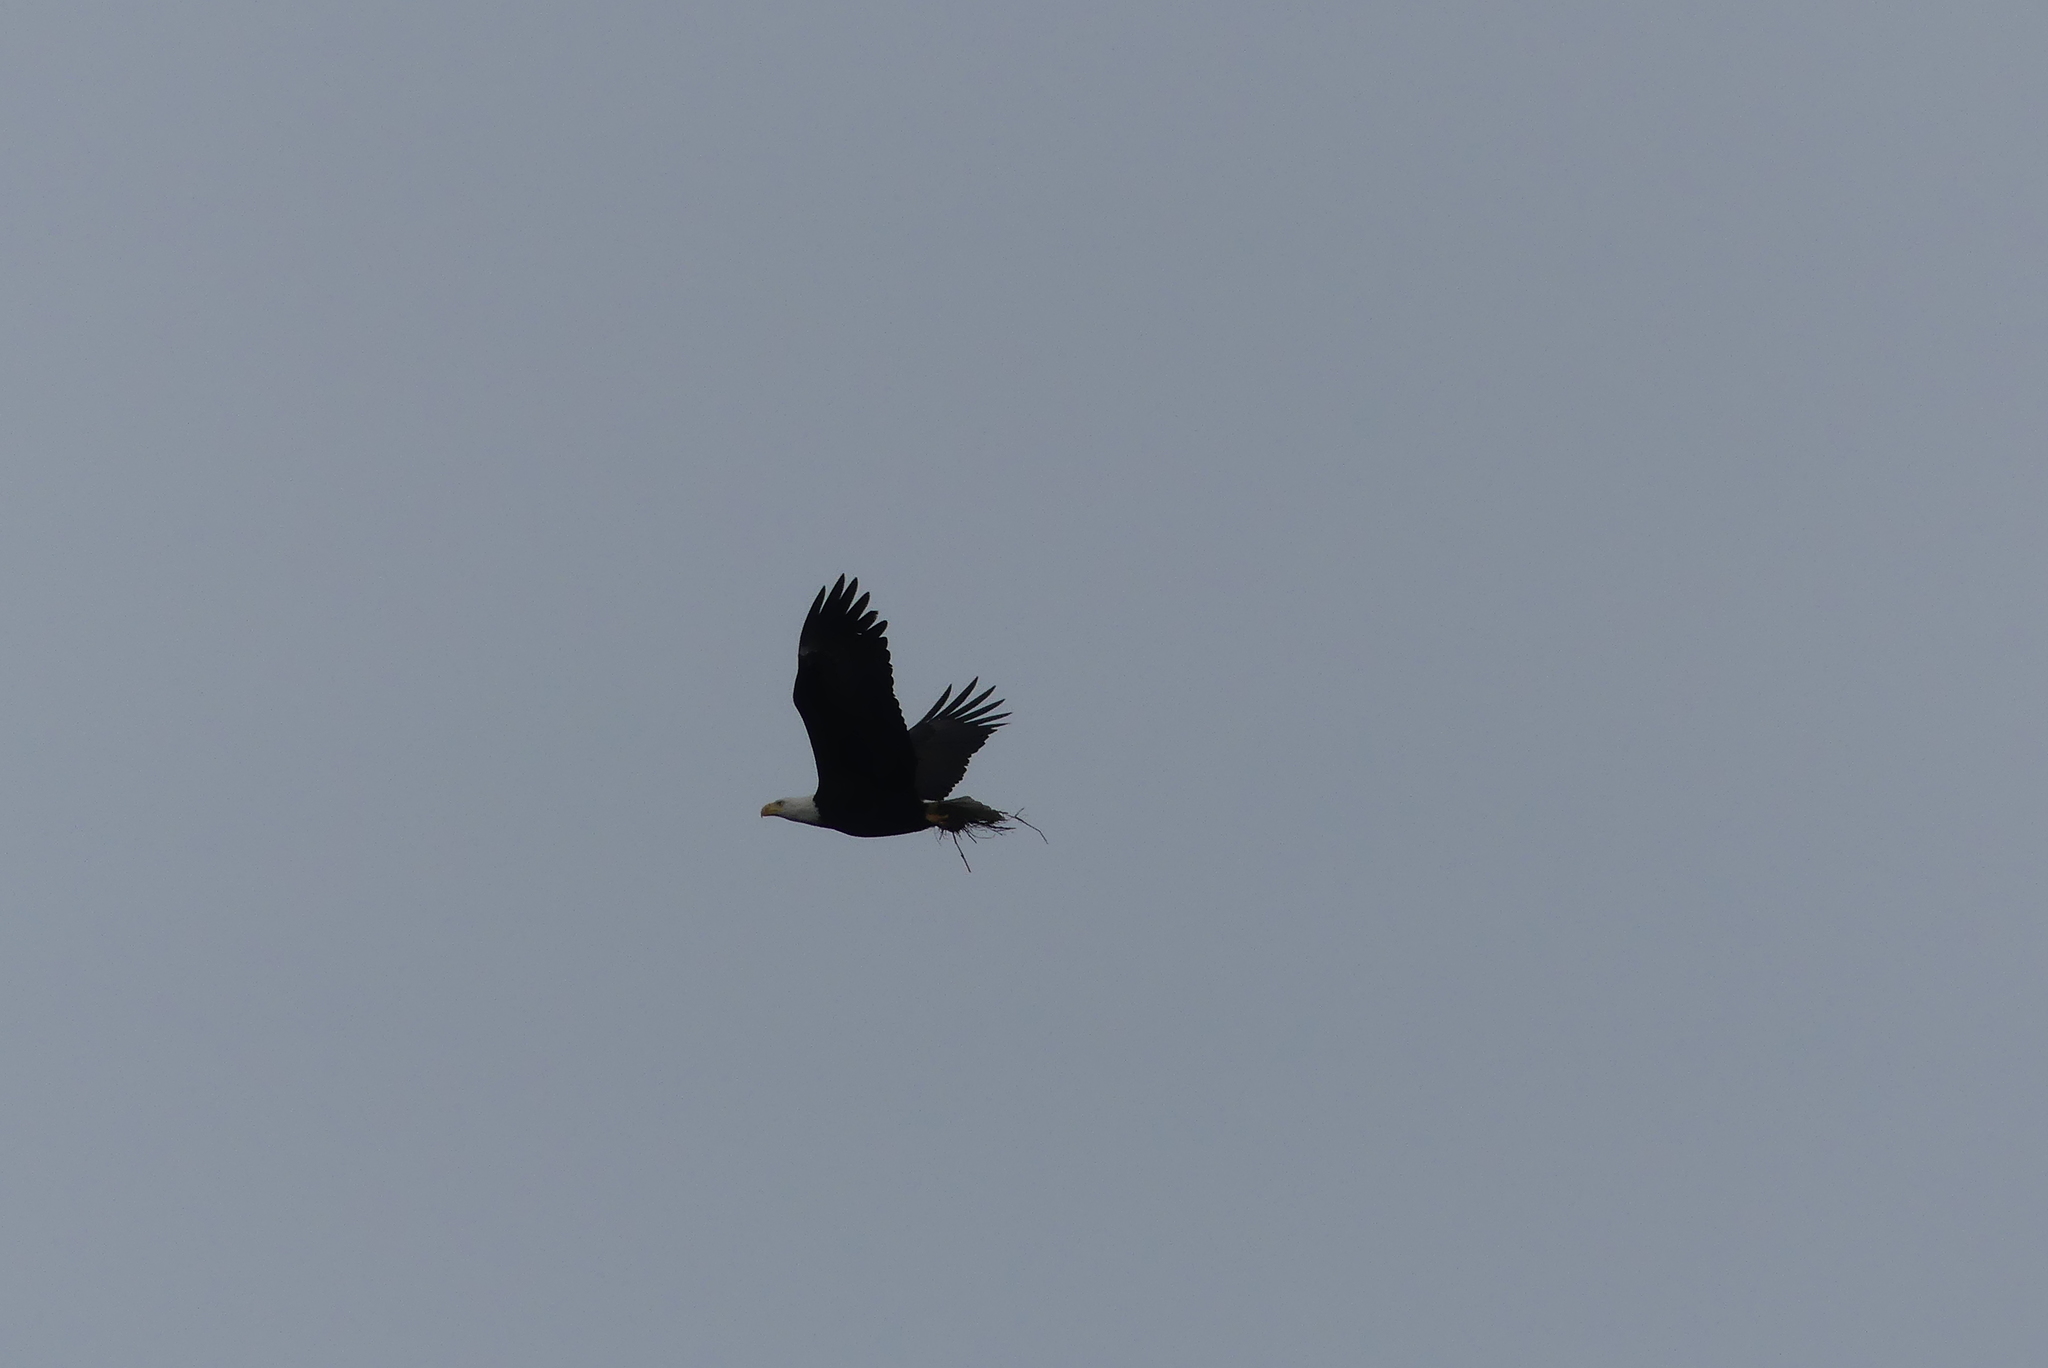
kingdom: Animalia
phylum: Chordata
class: Aves
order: Accipitriformes
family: Accipitridae
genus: Haliaeetus
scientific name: Haliaeetus leucocephalus
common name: Bald eagle
